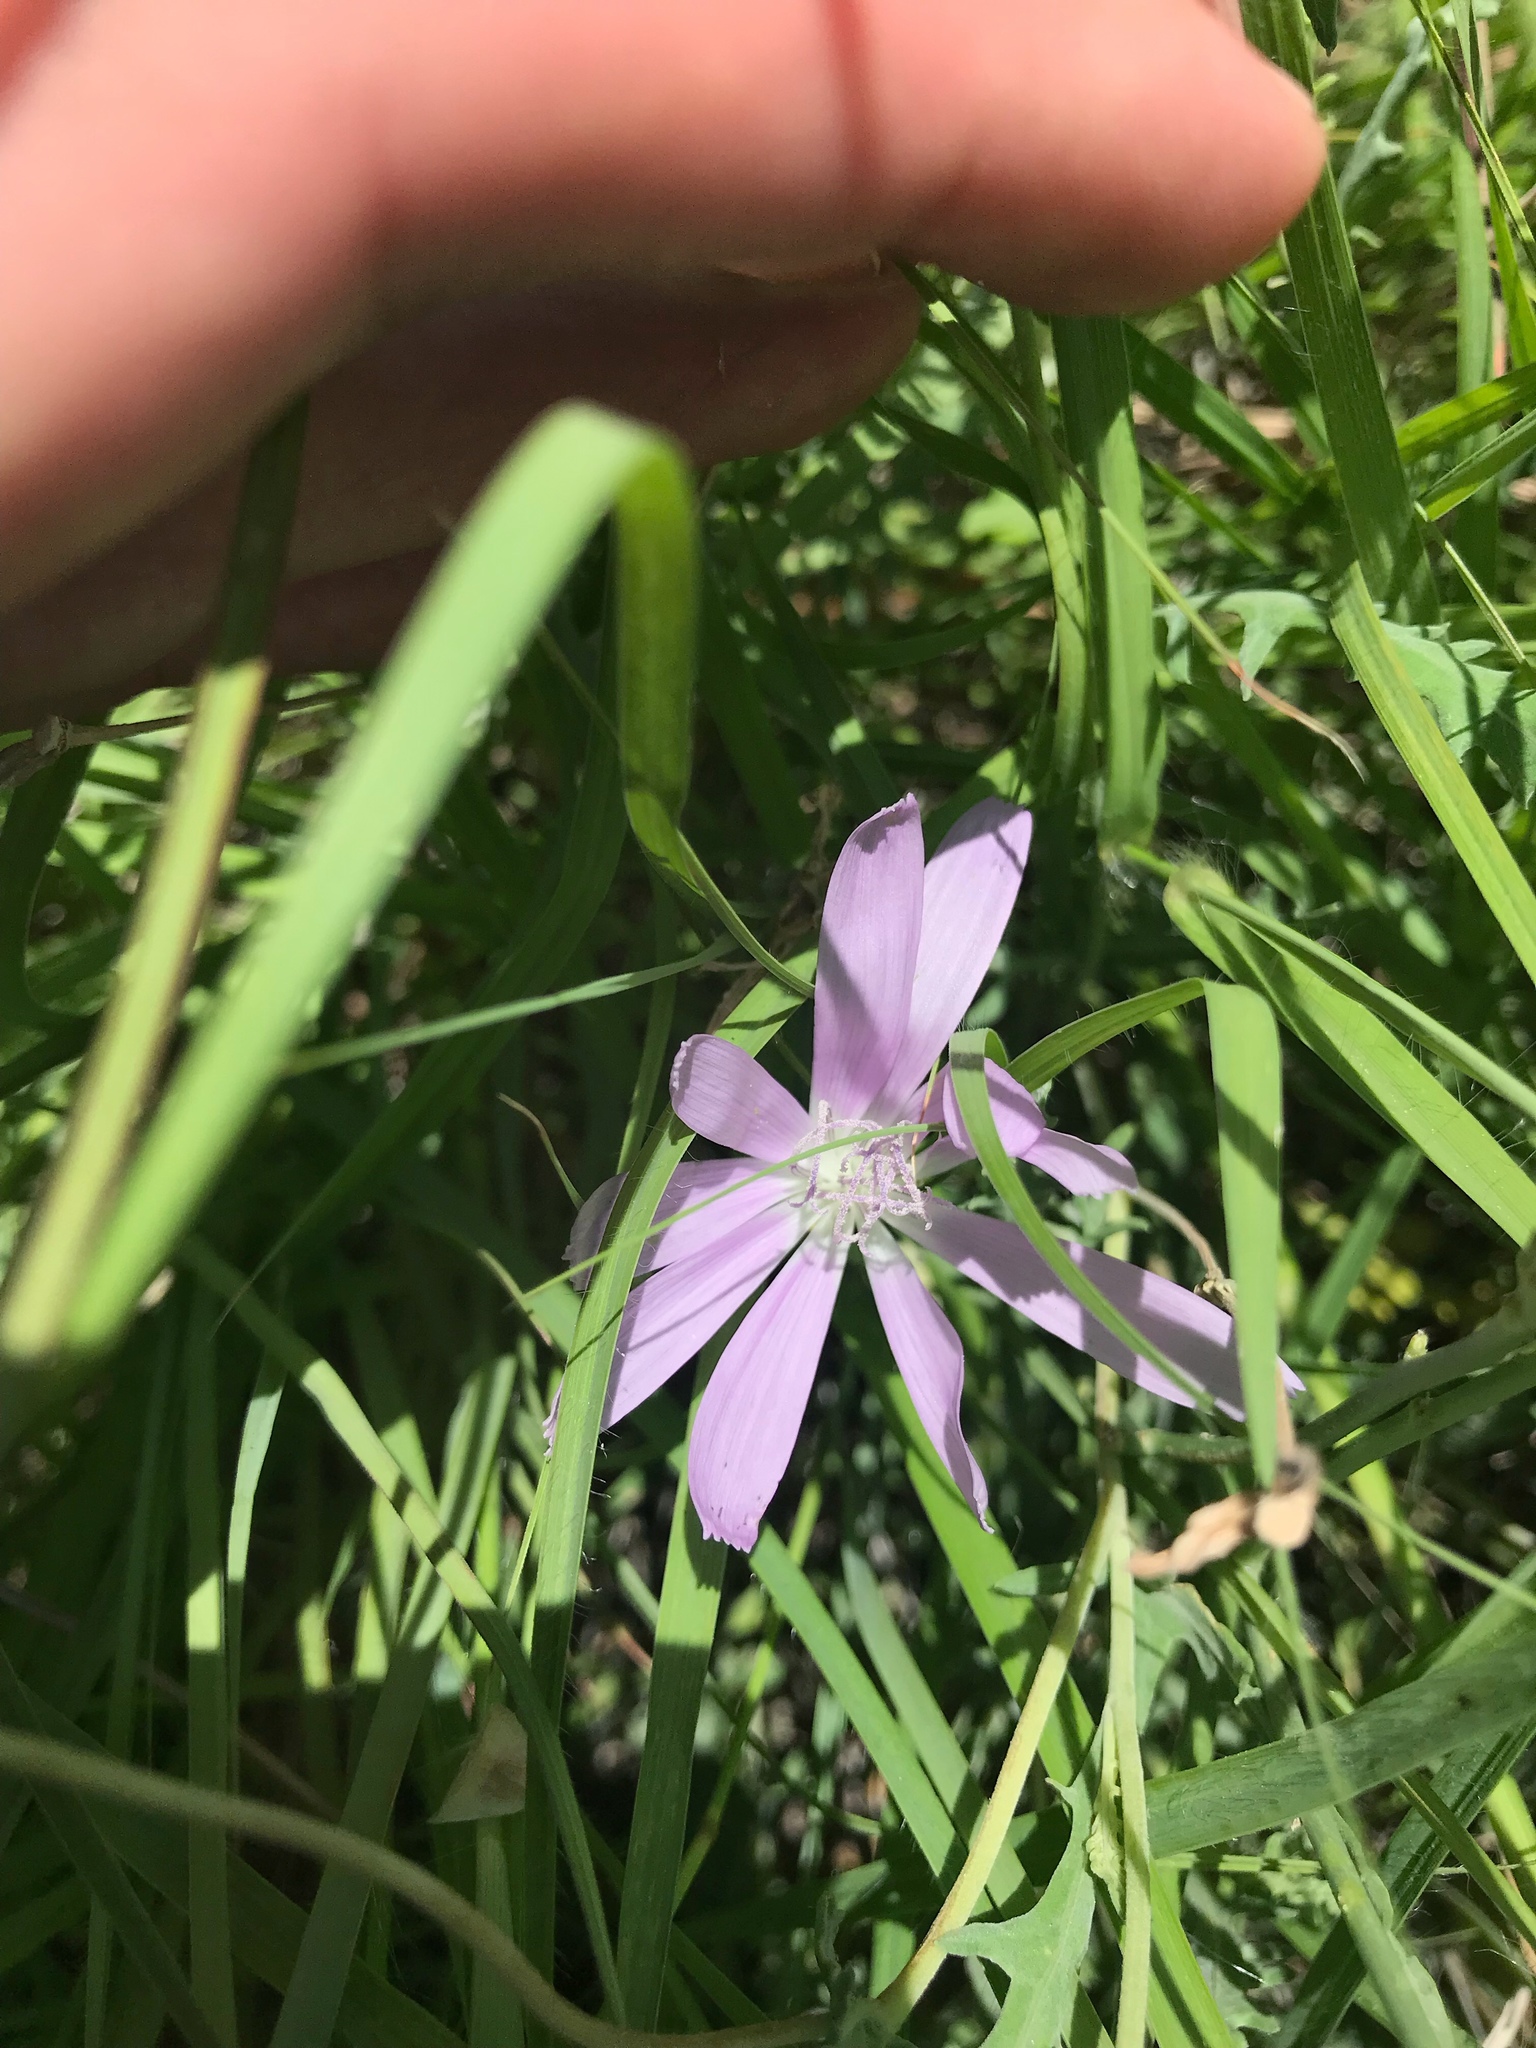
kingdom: Plantae
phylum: Tracheophyta
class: Magnoliopsida
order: Asterales
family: Asteraceae
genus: Lygodesmia
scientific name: Lygodesmia texana
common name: Texas skeleton-plant
